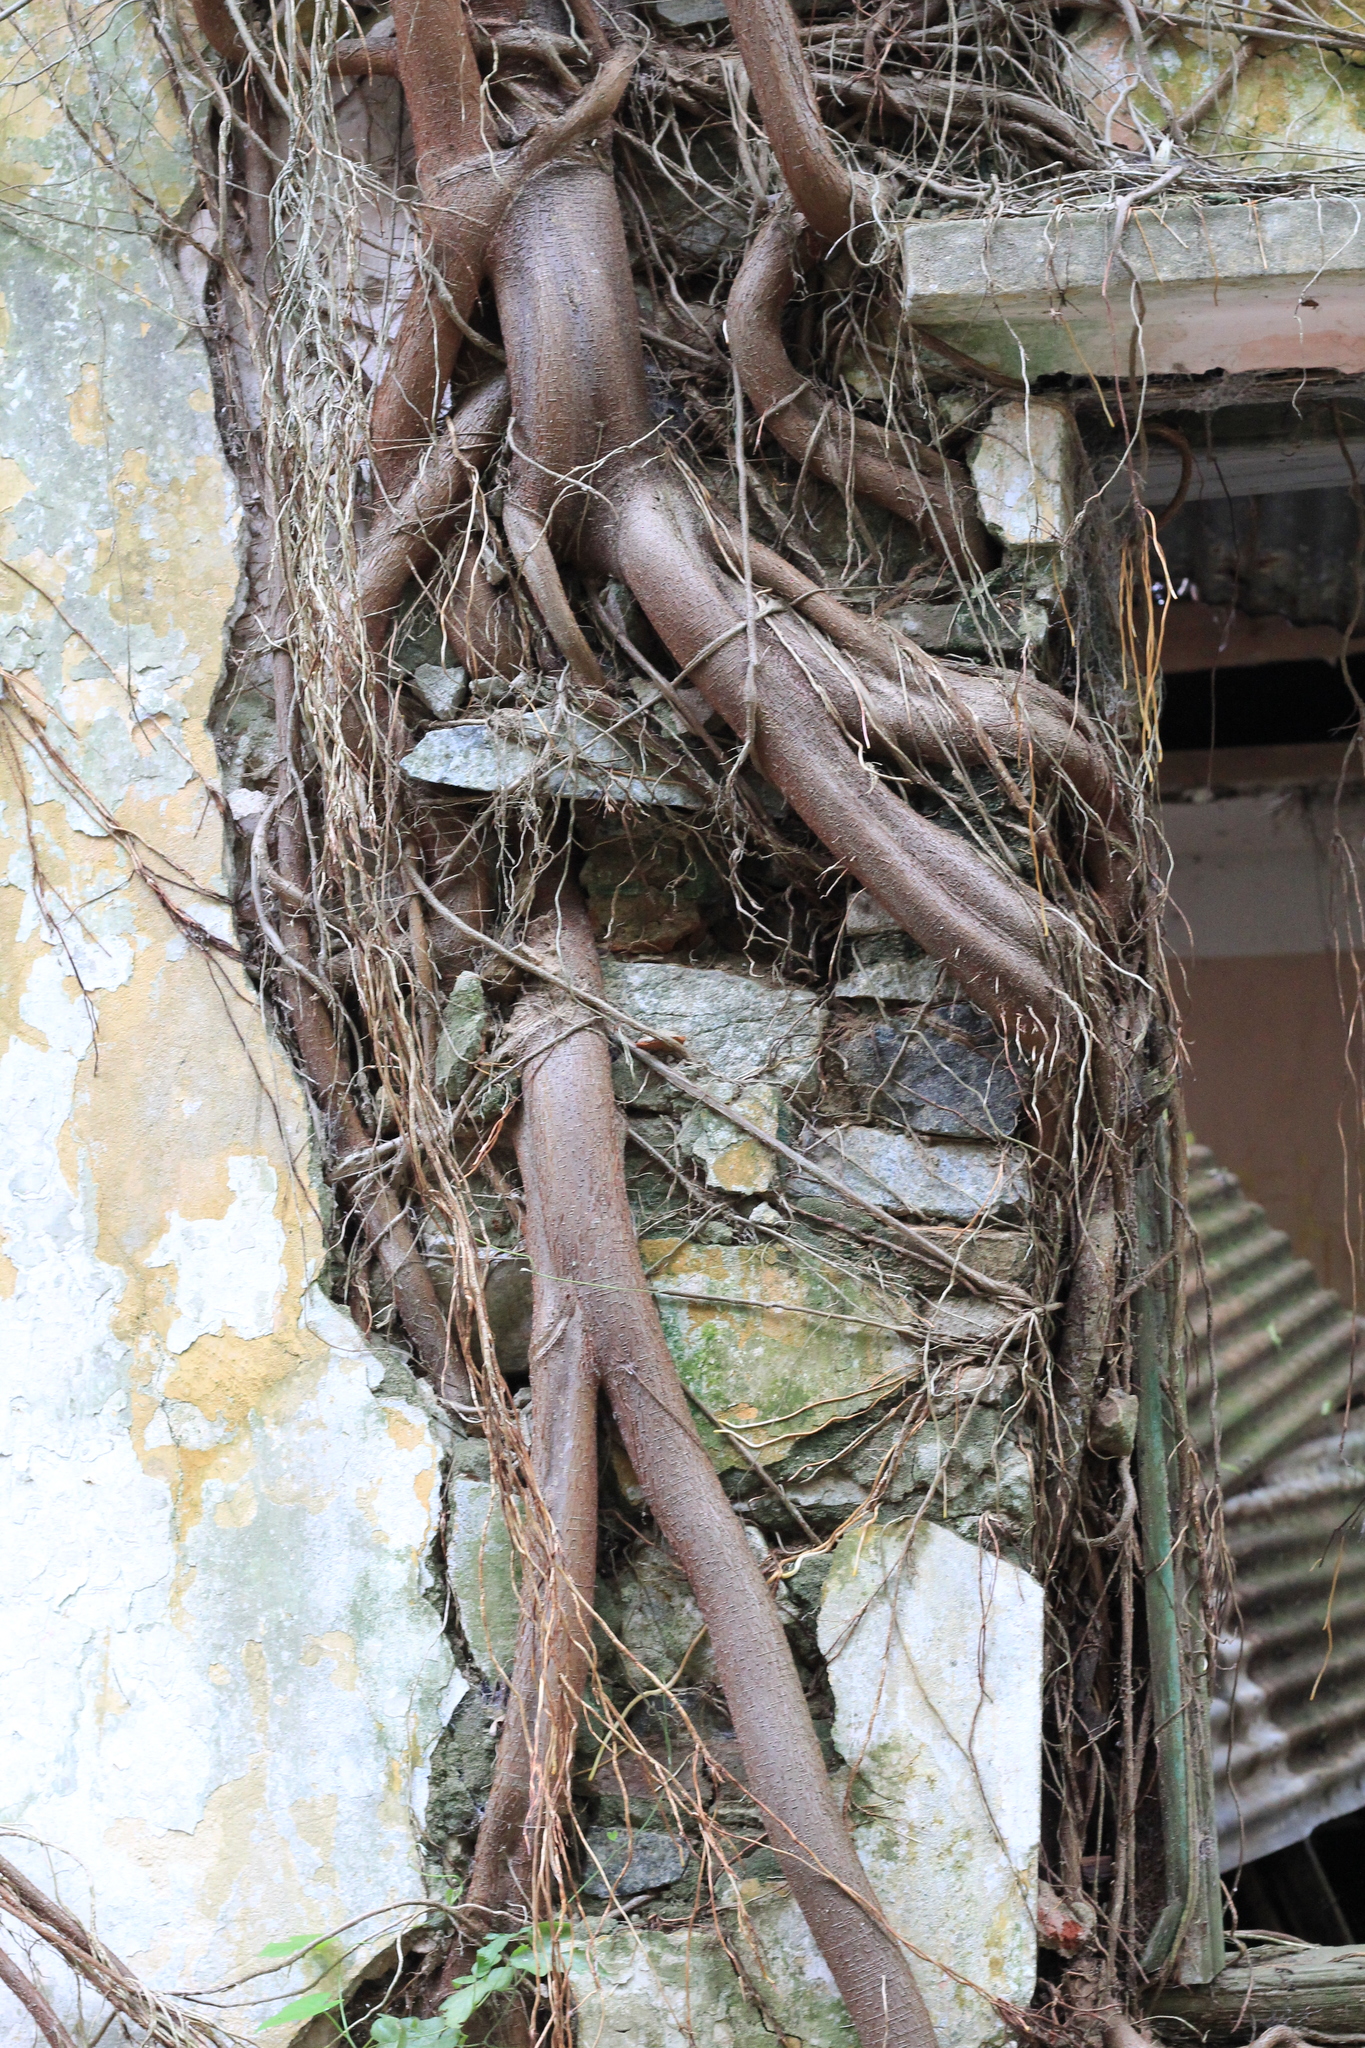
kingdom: Plantae
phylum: Tracheophyta
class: Magnoliopsida
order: Rosales
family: Moraceae
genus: Ficus
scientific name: Ficus luschnathiana
